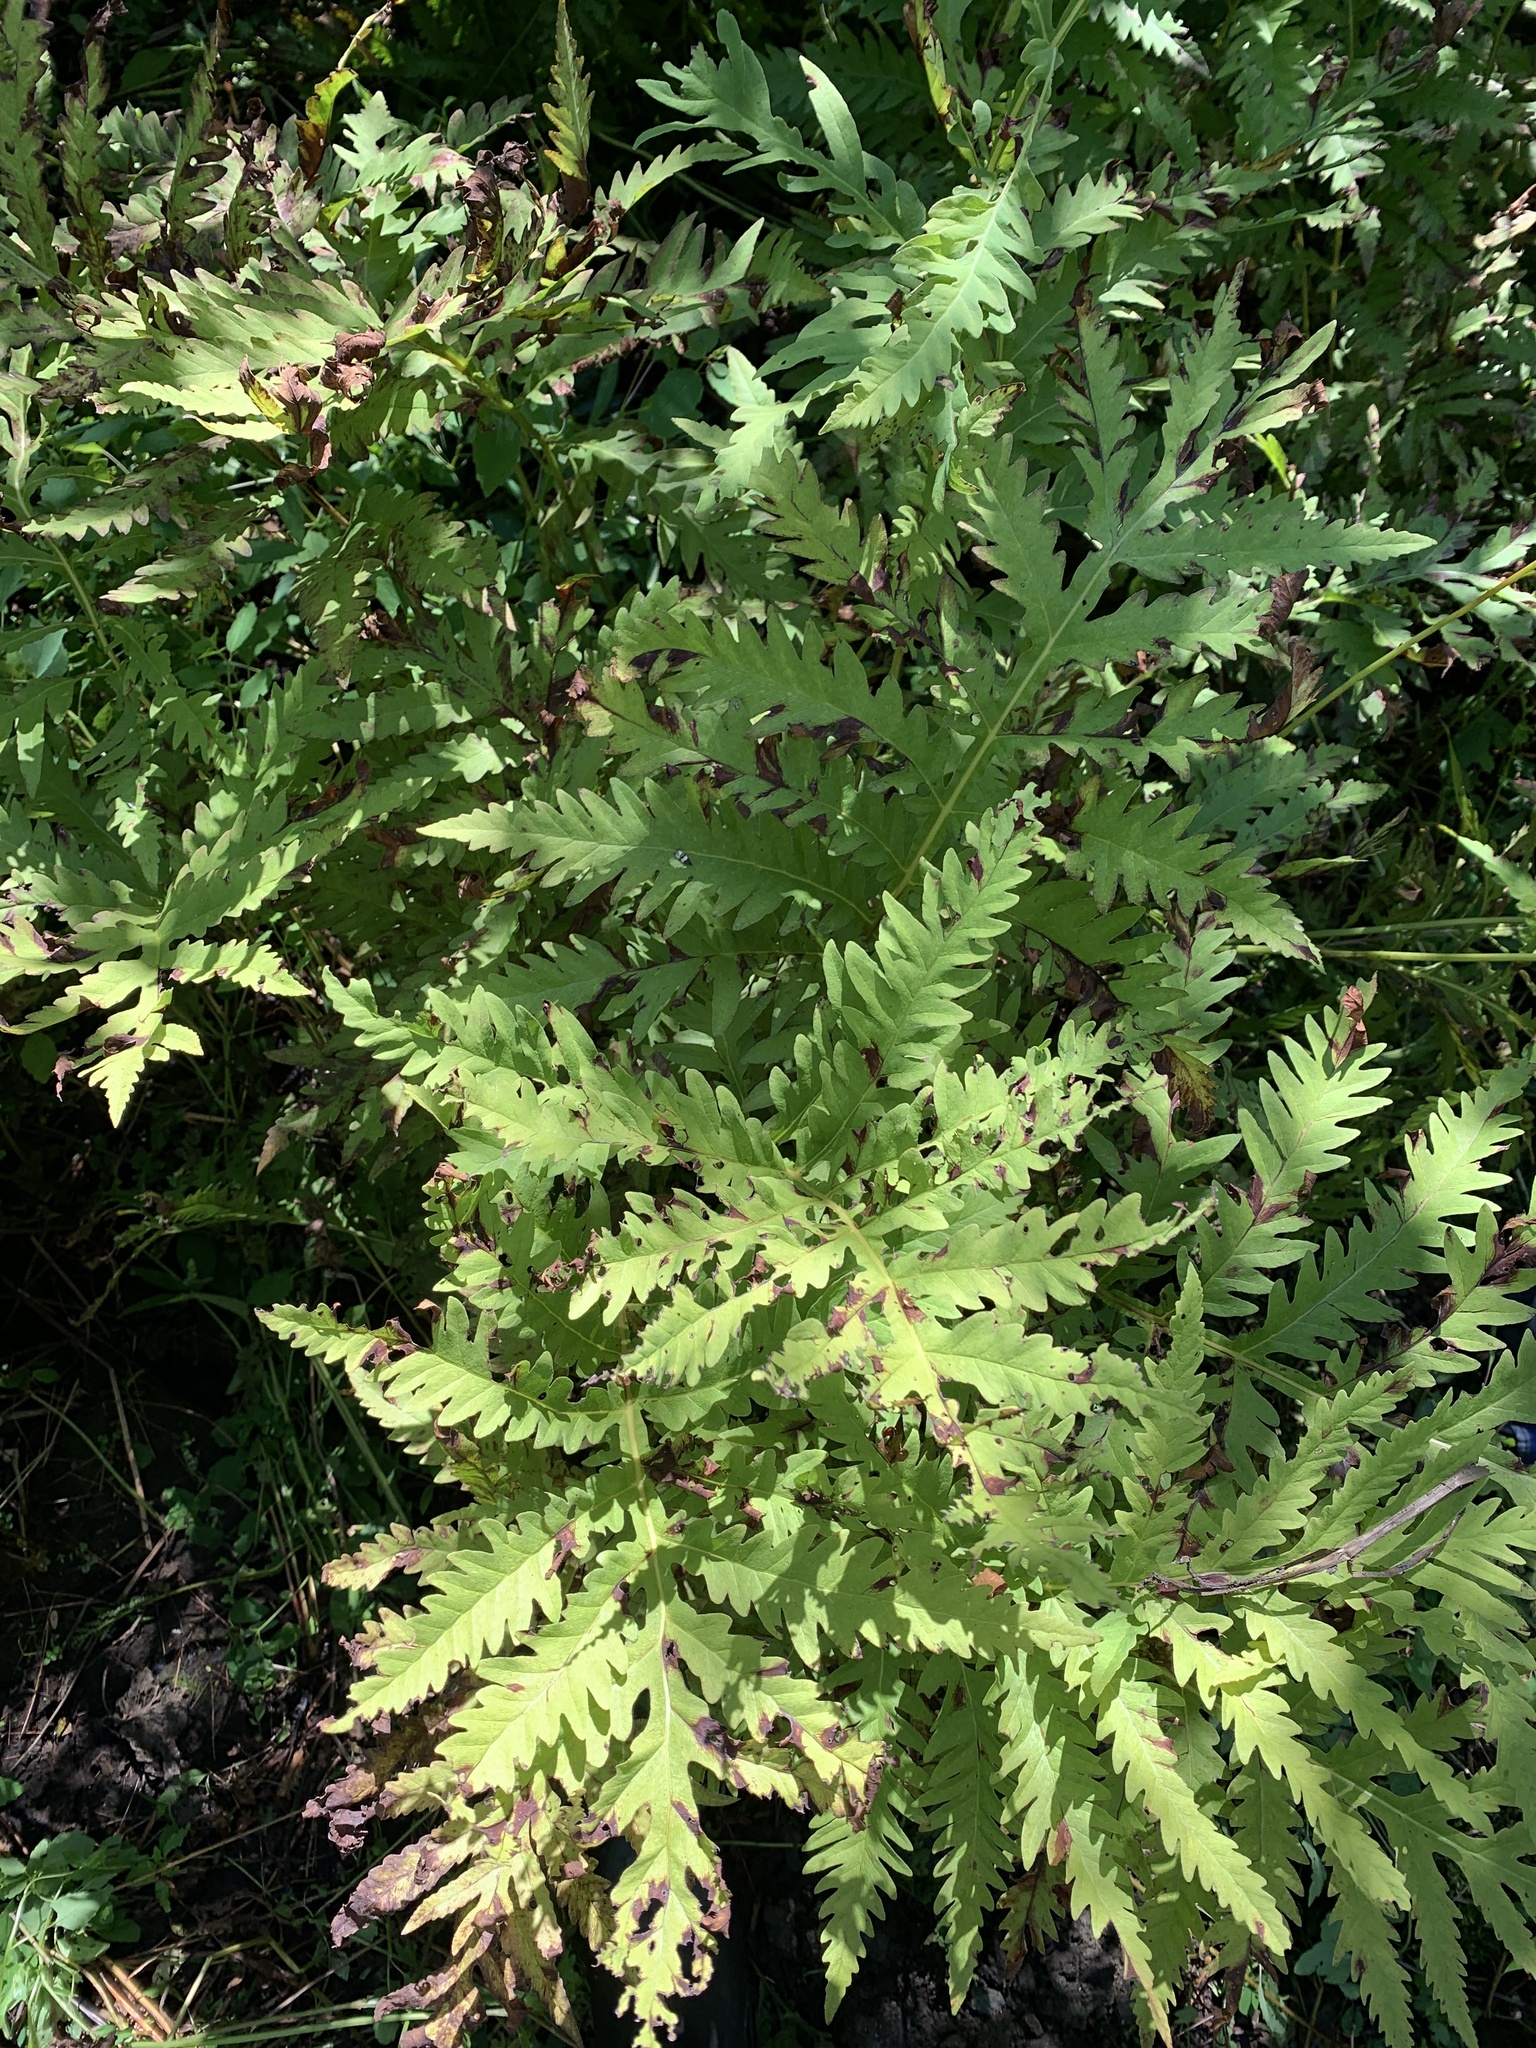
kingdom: Plantae
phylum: Tracheophyta
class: Polypodiopsida
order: Polypodiales
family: Onocleaceae
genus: Onoclea
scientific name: Onoclea sensibilis
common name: Sensitive fern
